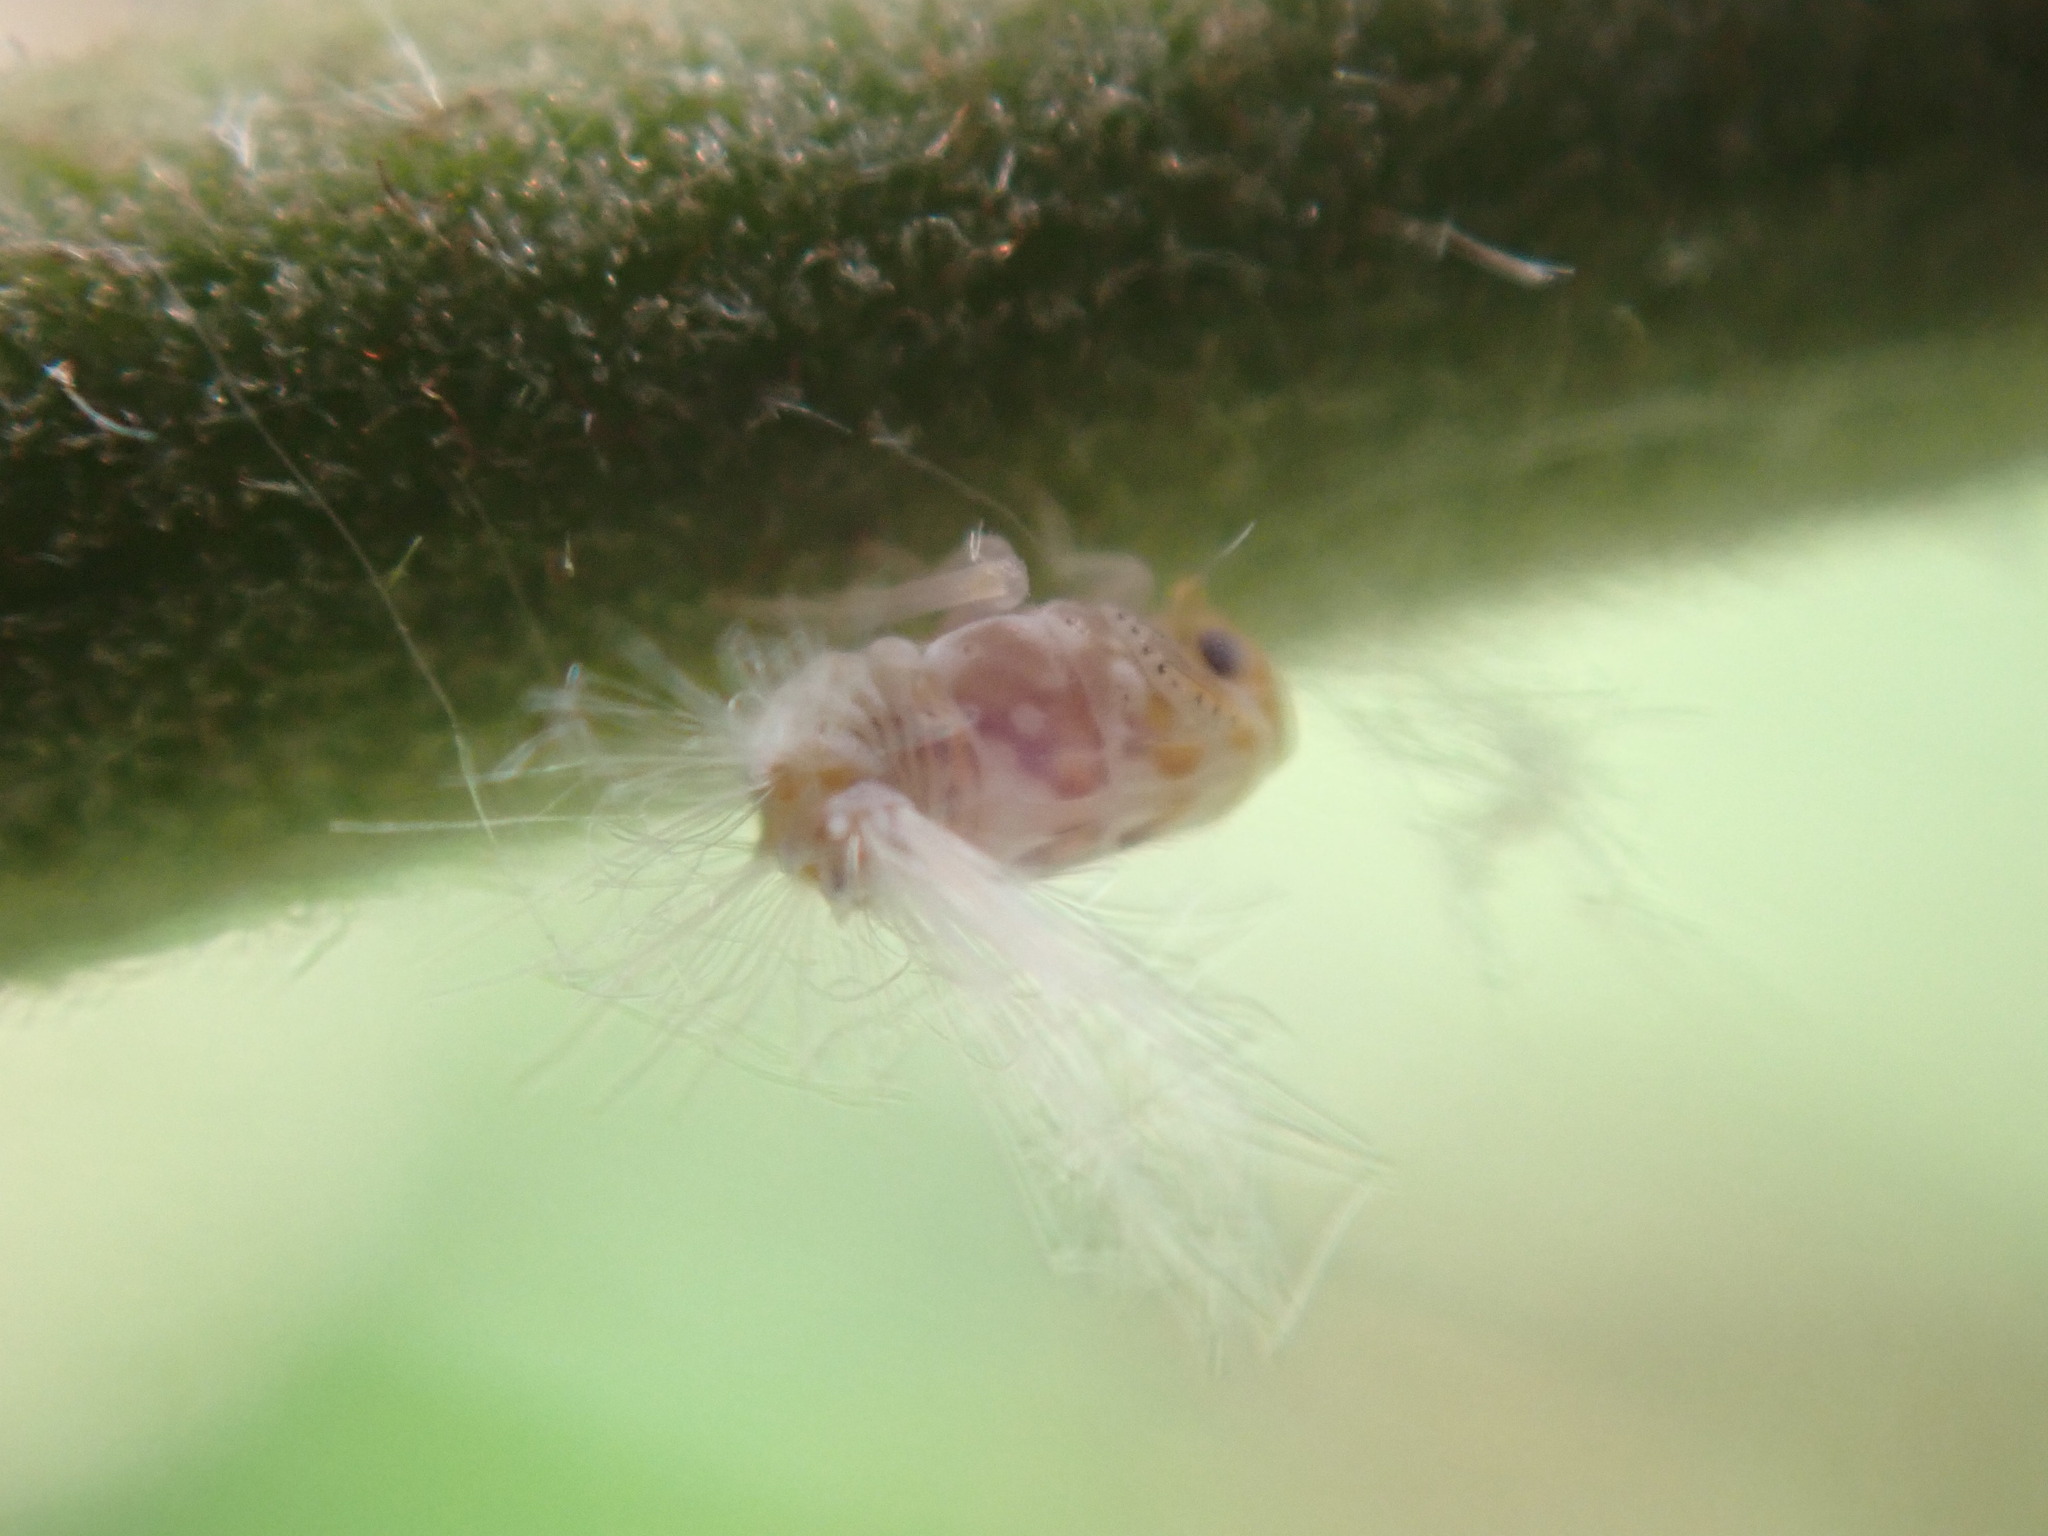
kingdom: Animalia
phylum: Arthropoda
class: Insecta
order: Hemiptera
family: Ricaniidae
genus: Scolypopa
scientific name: Scolypopa australis
